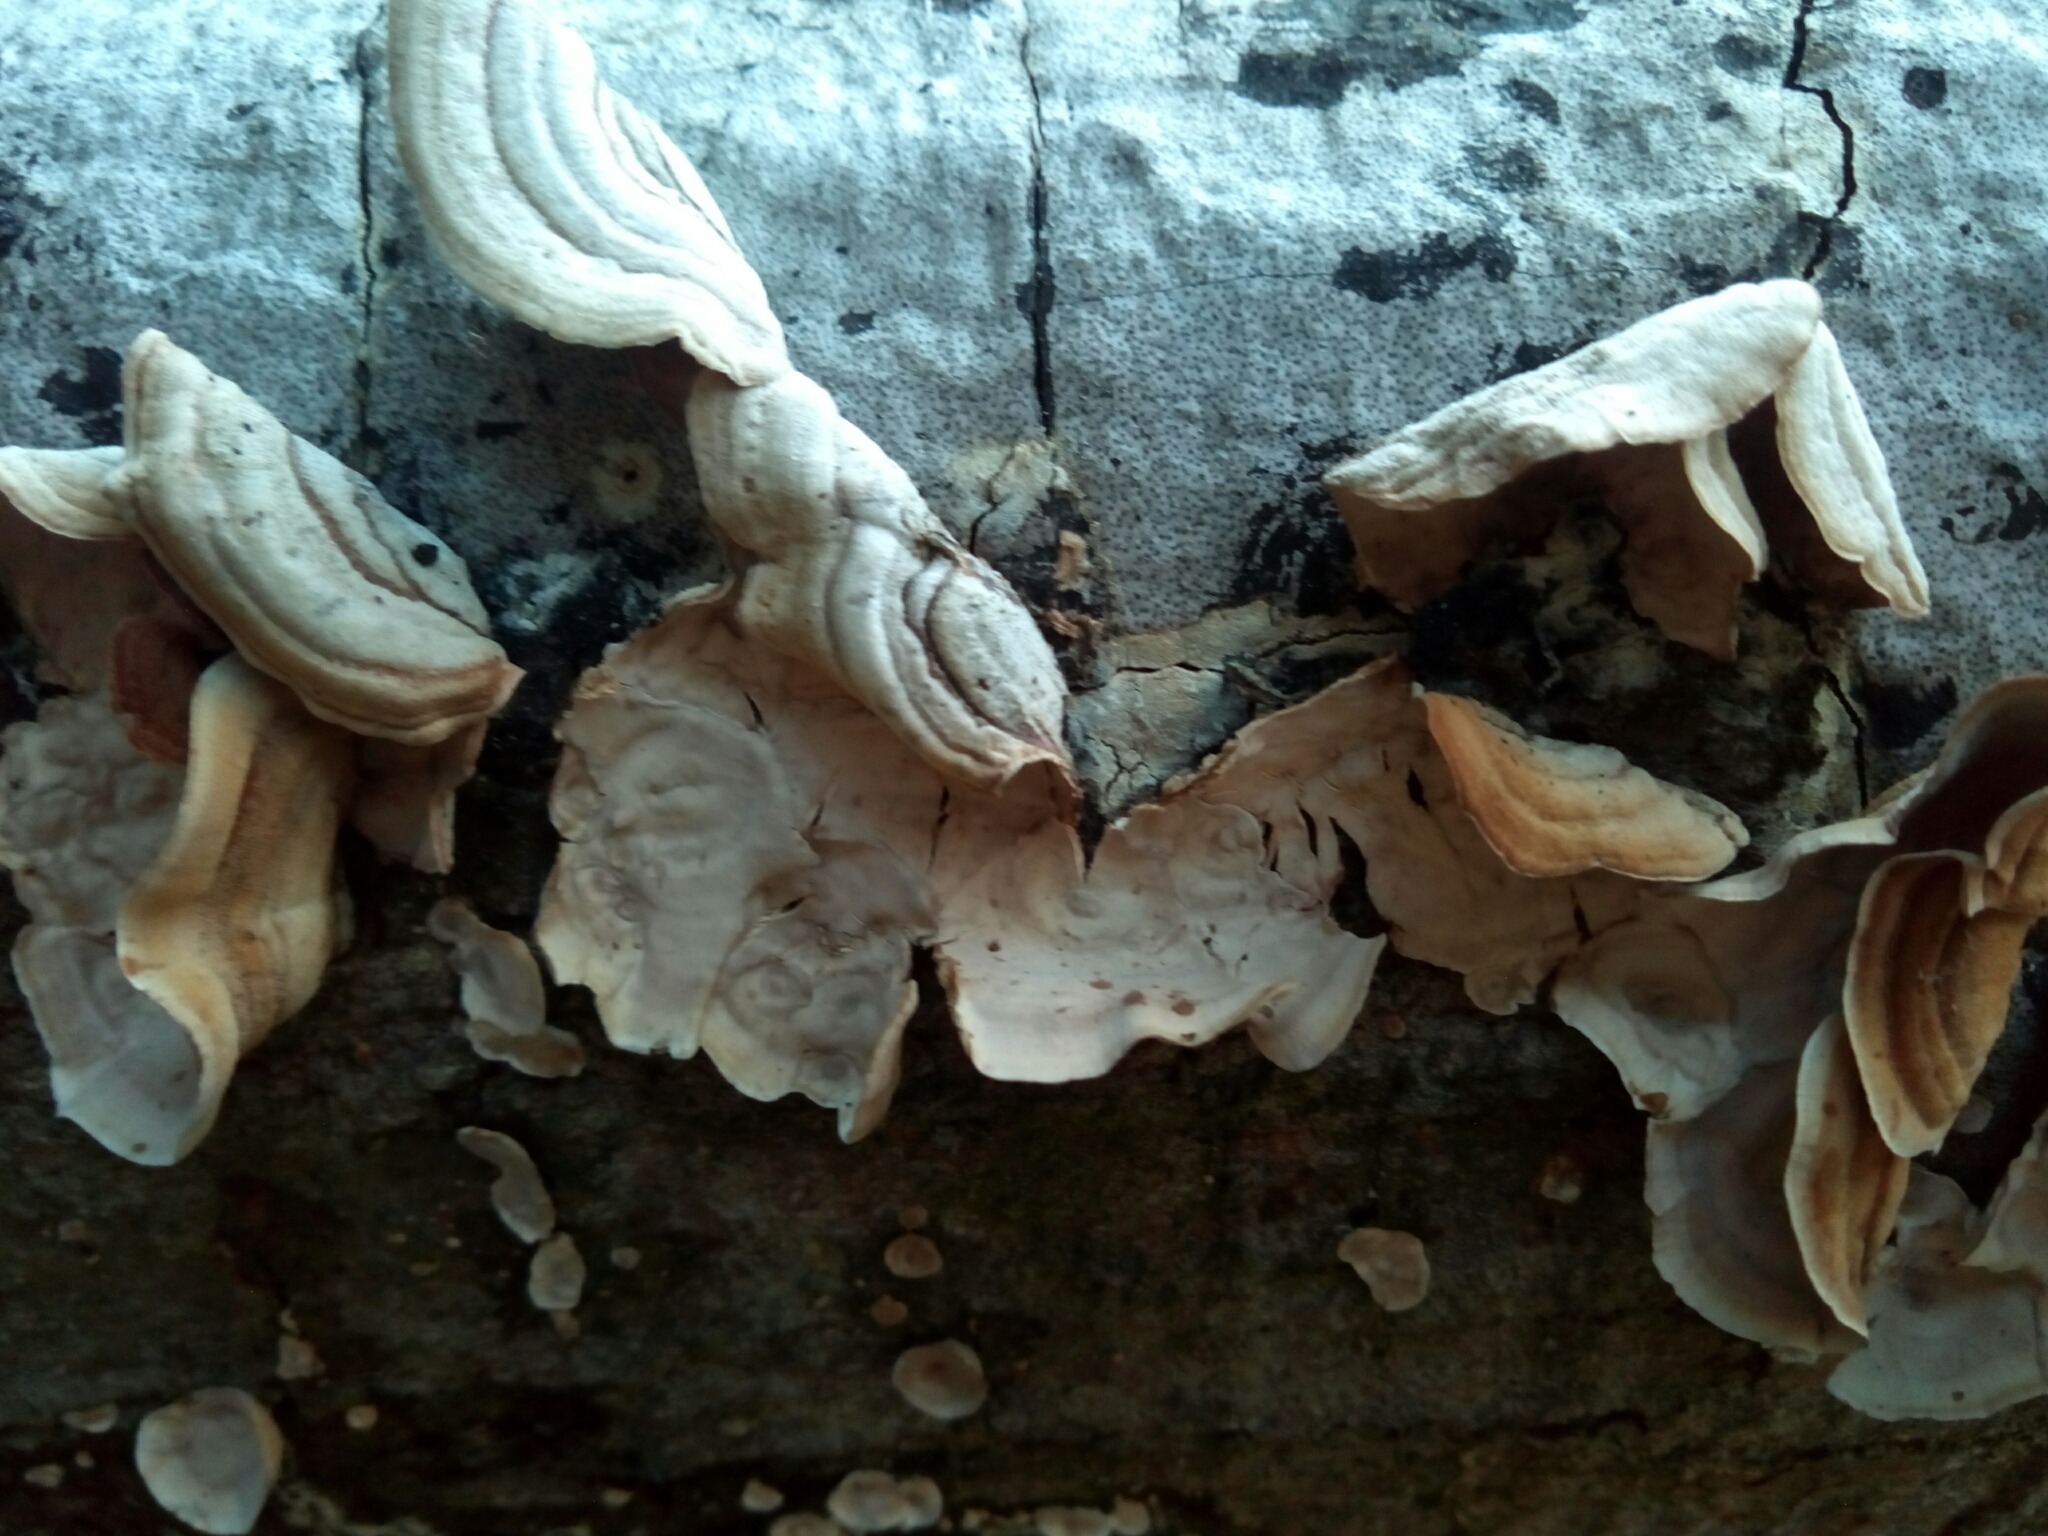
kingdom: Fungi
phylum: Basidiomycota
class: Agaricomycetes
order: Russulales
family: Stereaceae
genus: Stereum
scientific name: Stereum ostrea
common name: False turkeytail
